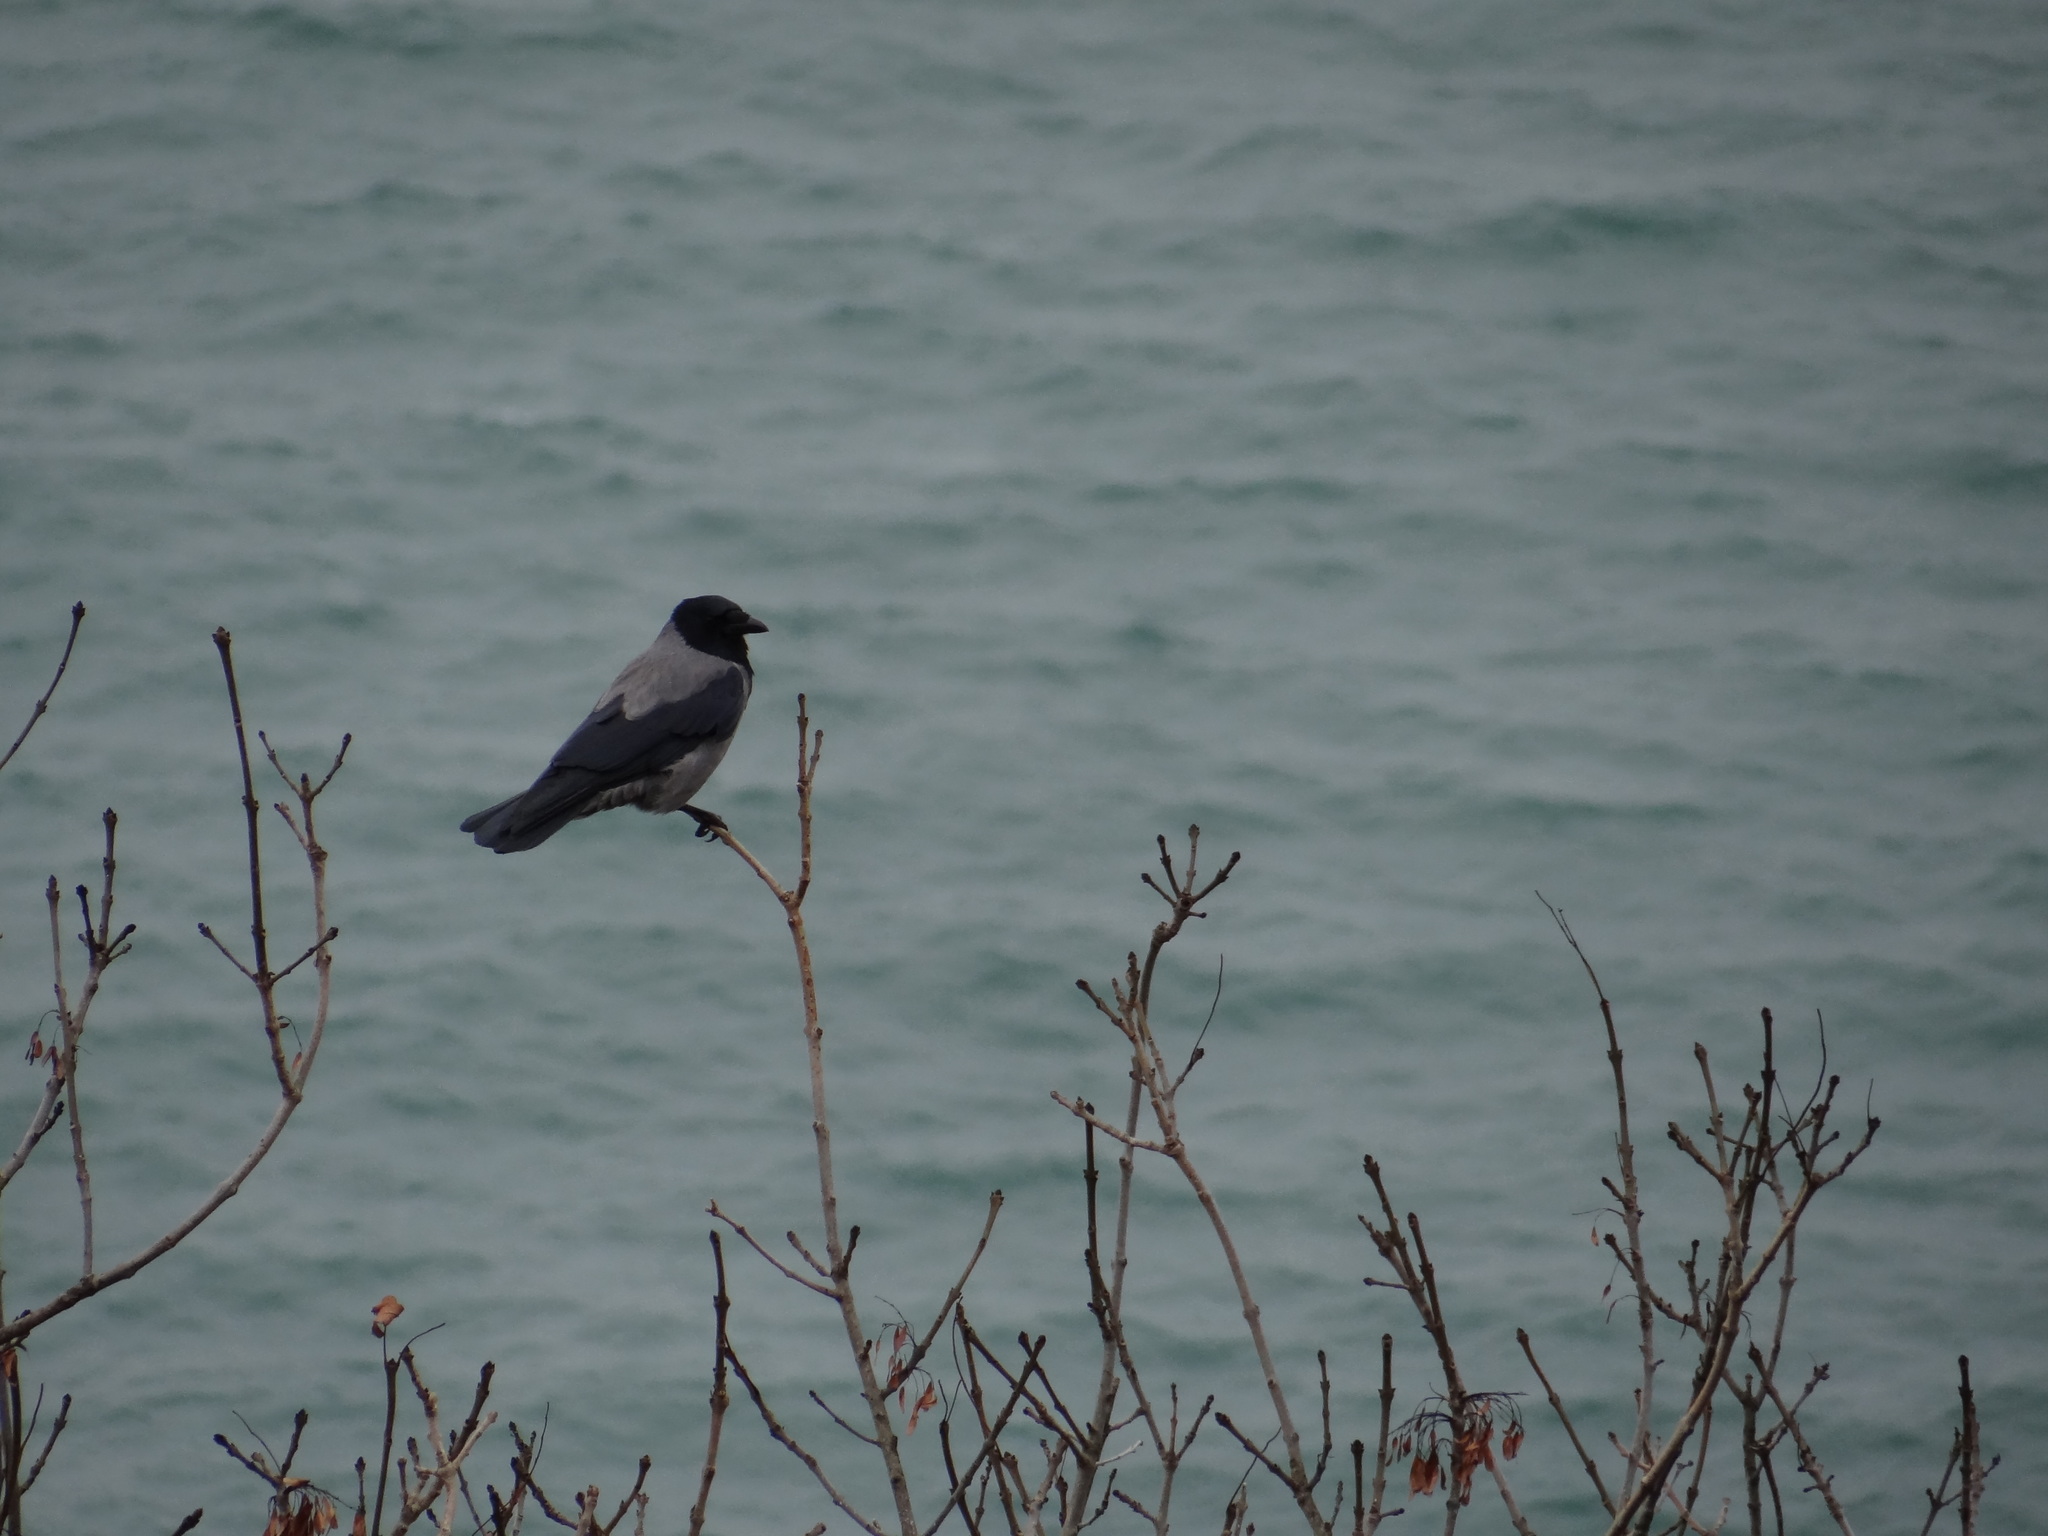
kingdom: Animalia
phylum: Chordata
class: Aves
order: Passeriformes
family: Corvidae
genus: Corvus
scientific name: Corvus cornix
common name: Hooded crow
